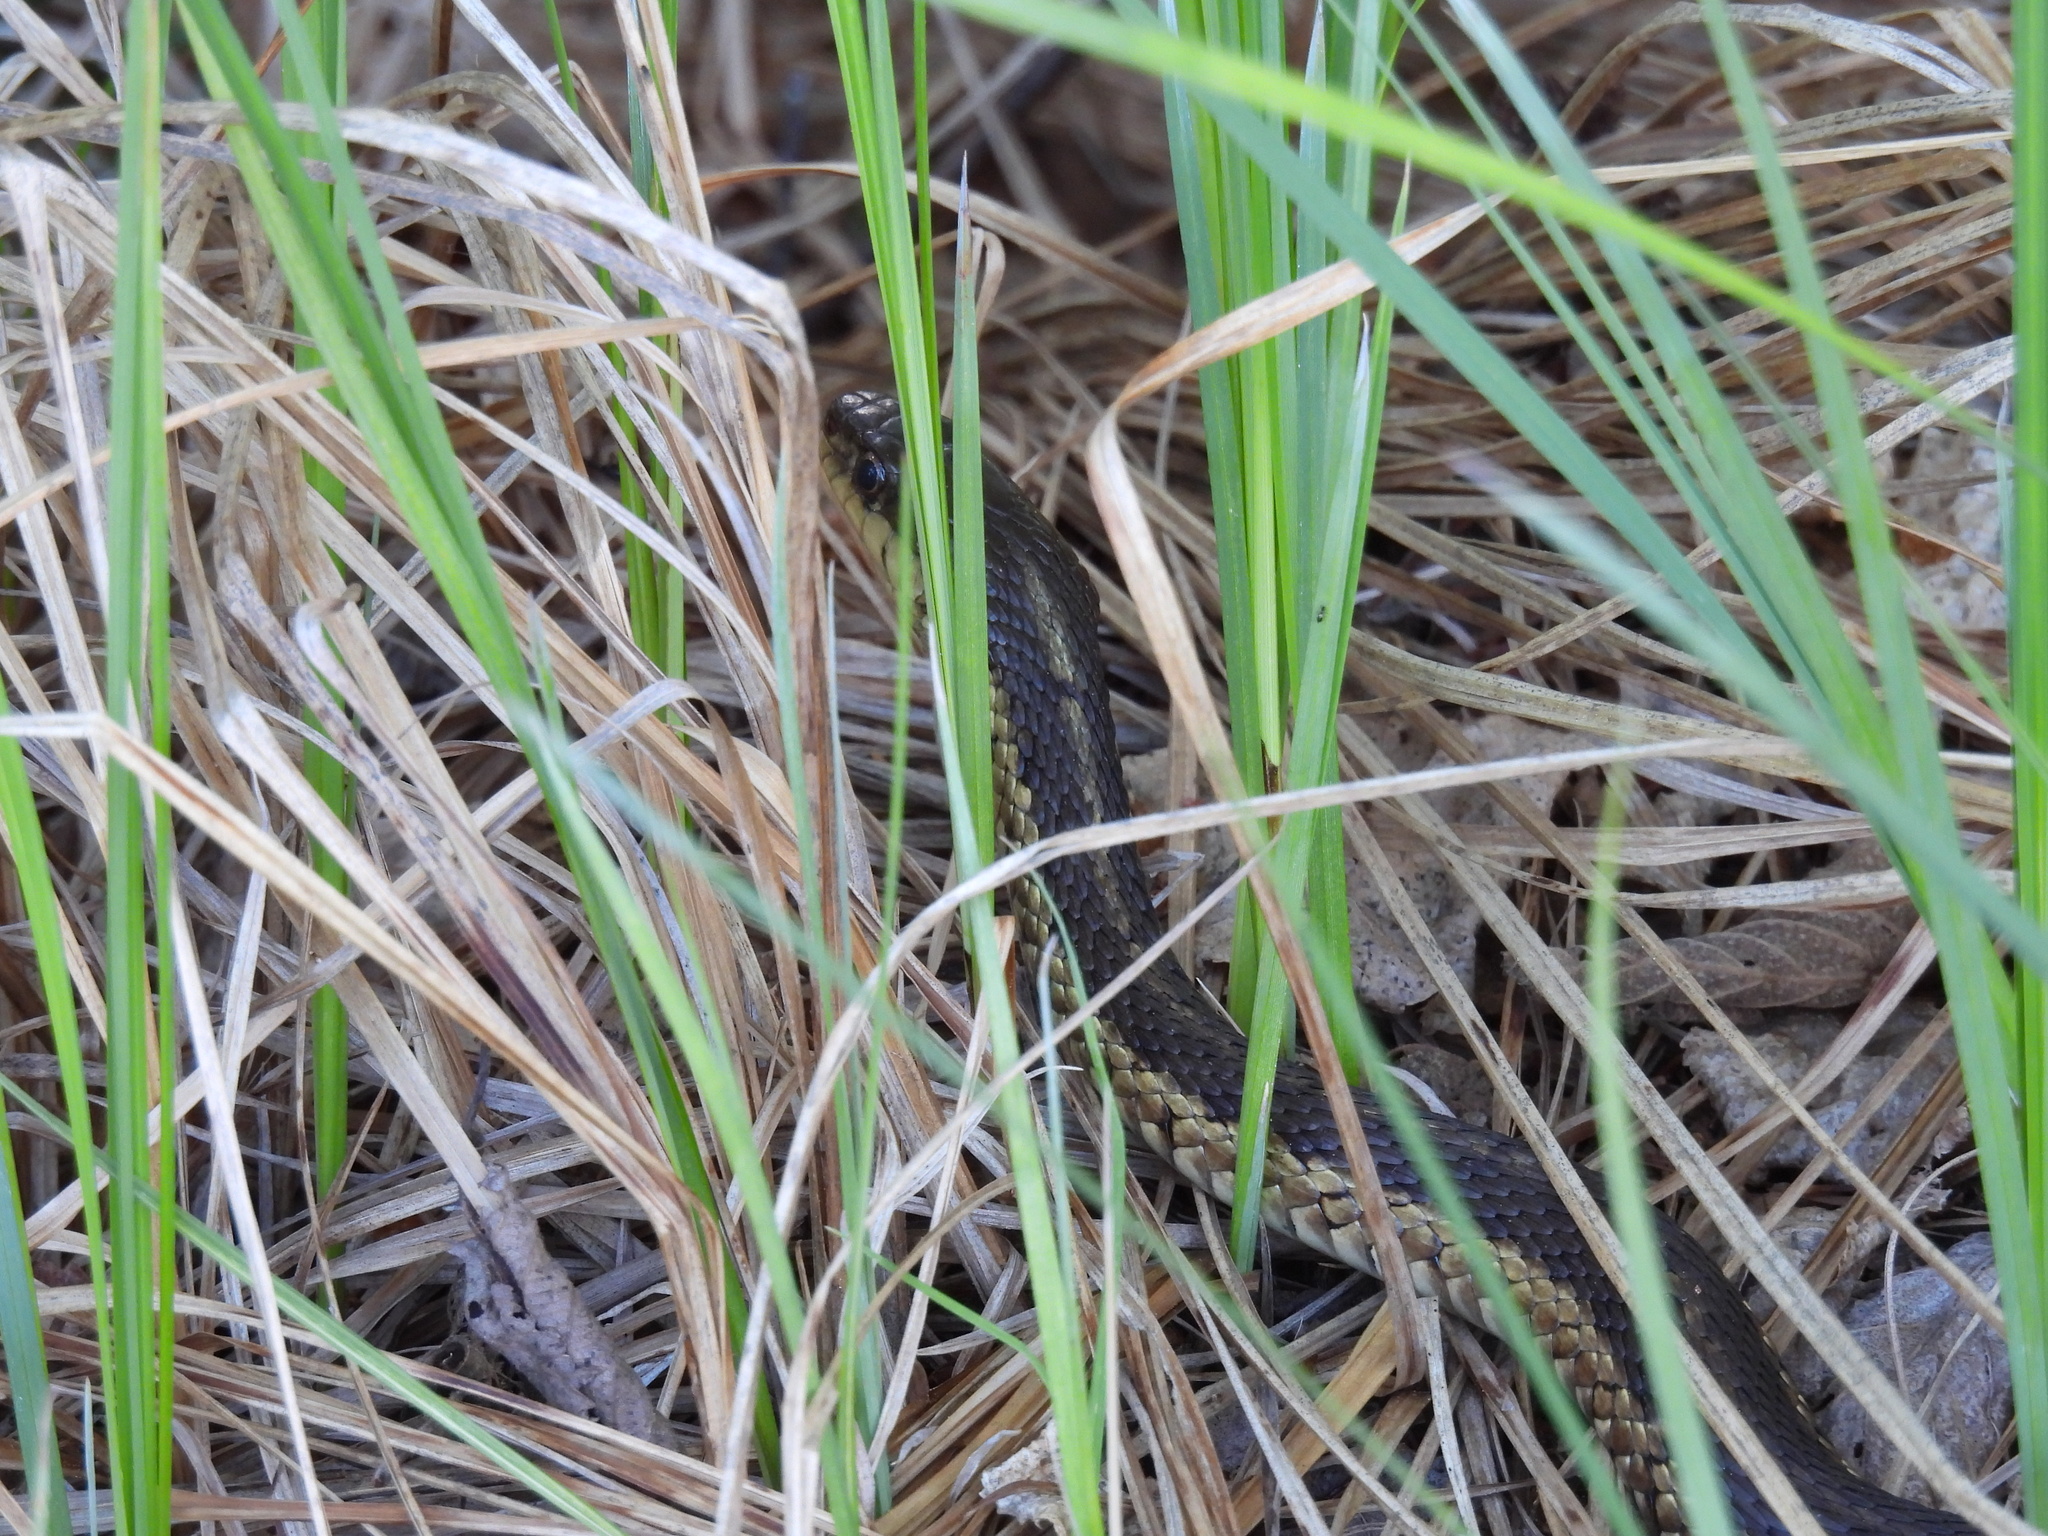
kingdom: Animalia
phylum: Chordata
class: Squamata
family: Colubridae
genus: Thamnophis
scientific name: Thamnophis sirtalis
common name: Common garter snake
